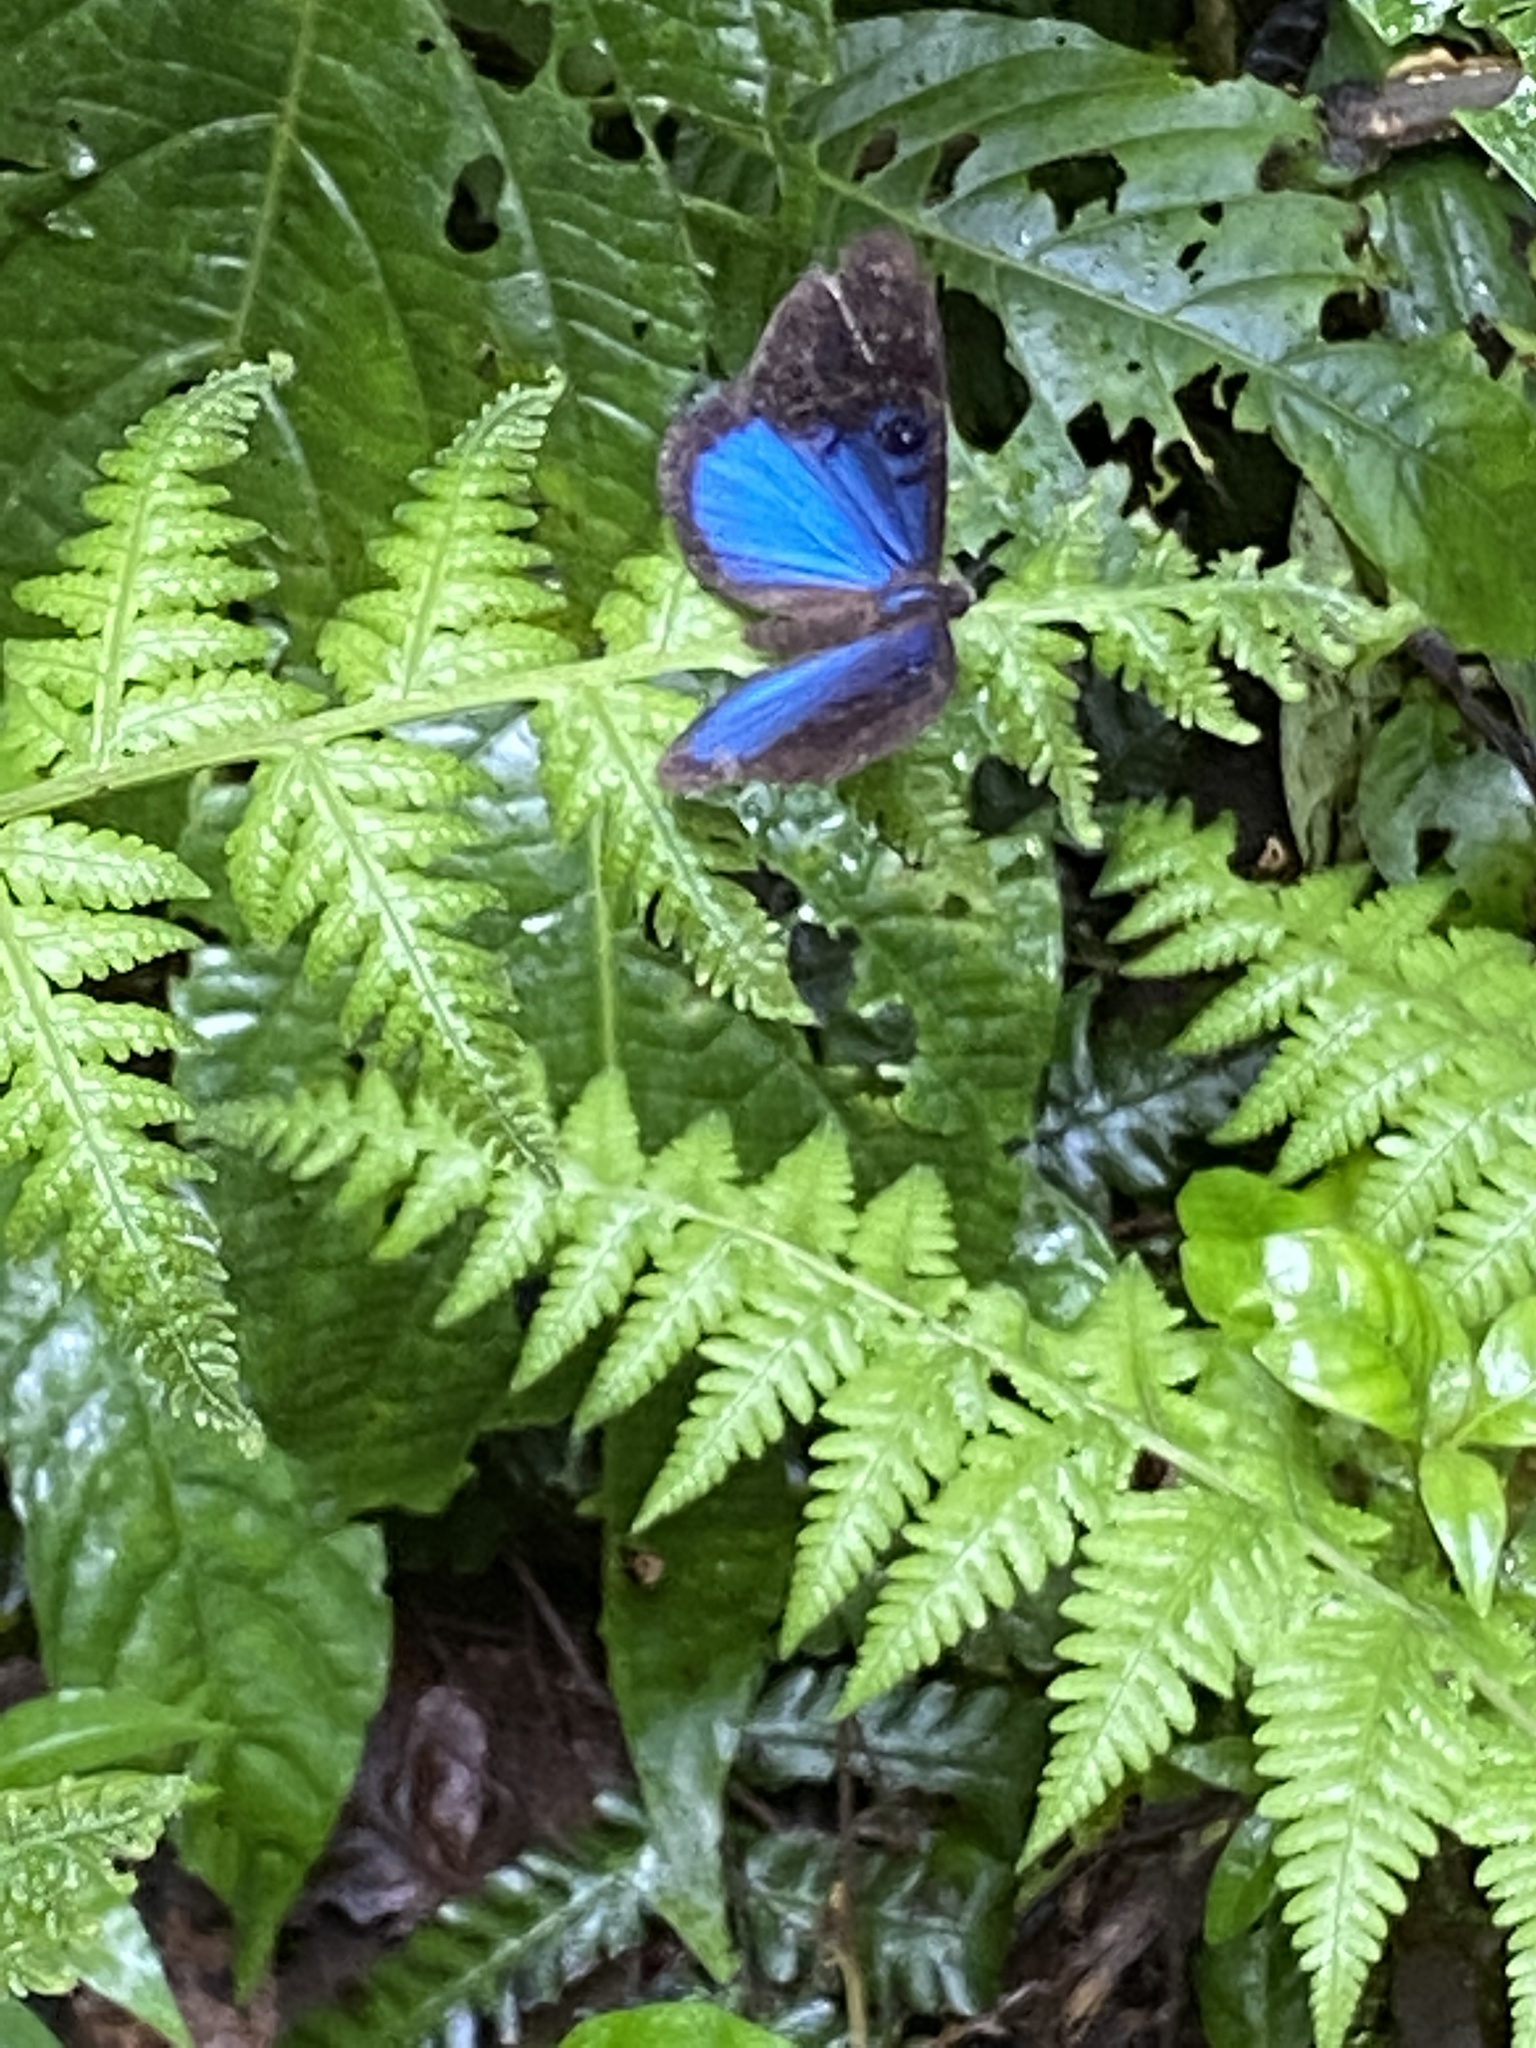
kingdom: Animalia
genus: Mesosemia
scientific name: Mesosemia asa
